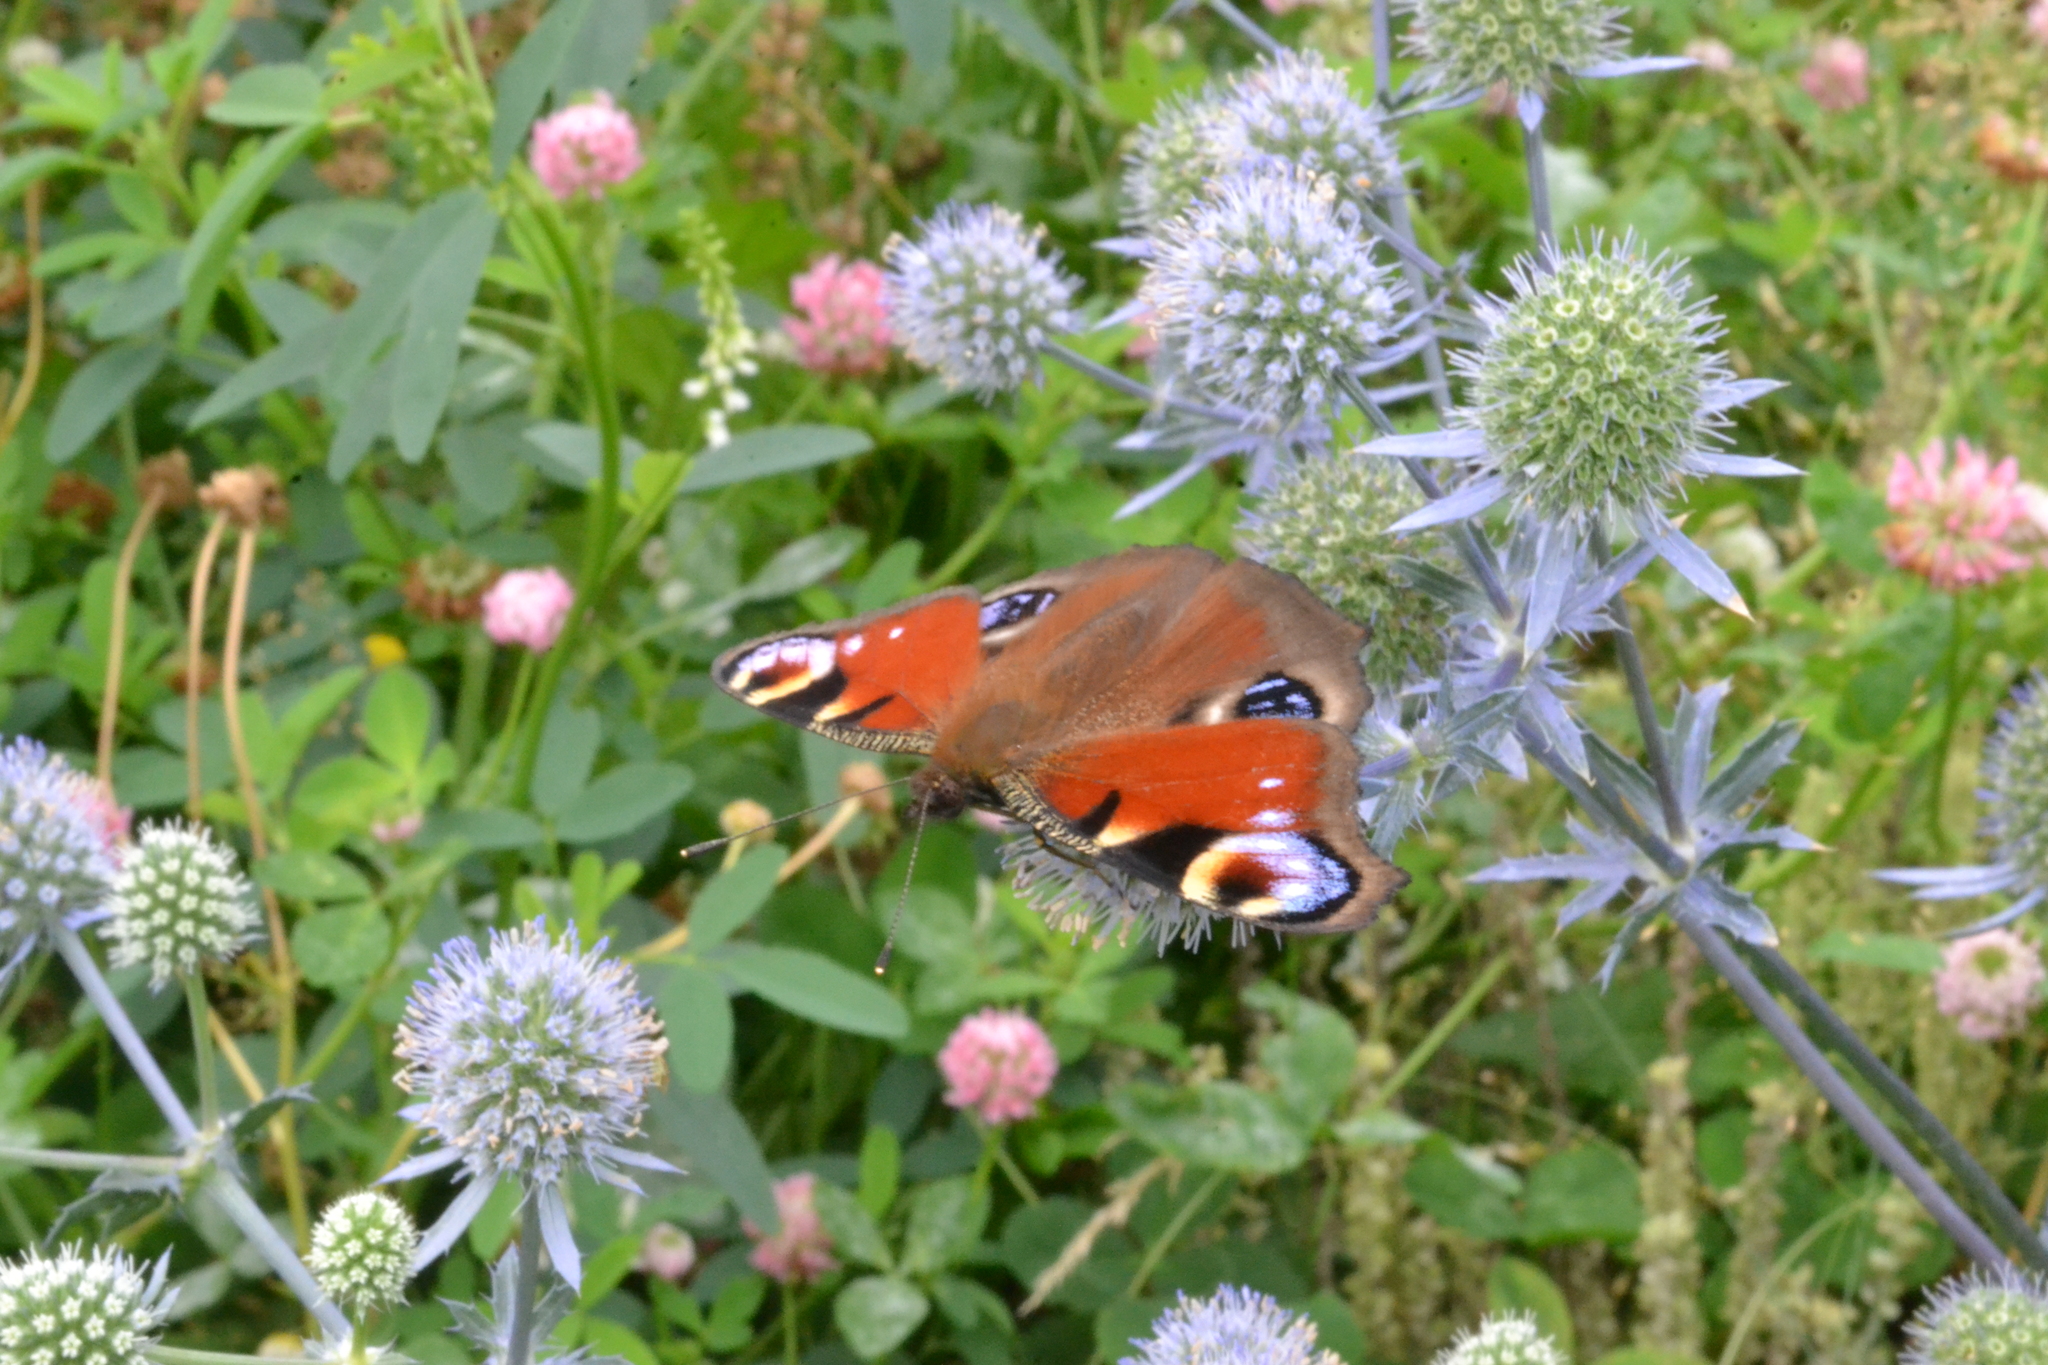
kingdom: Animalia
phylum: Arthropoda
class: Insecta
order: Lepidoptera
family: Nymphalidae
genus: Aglais
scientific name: Aglais io
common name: Peacock
